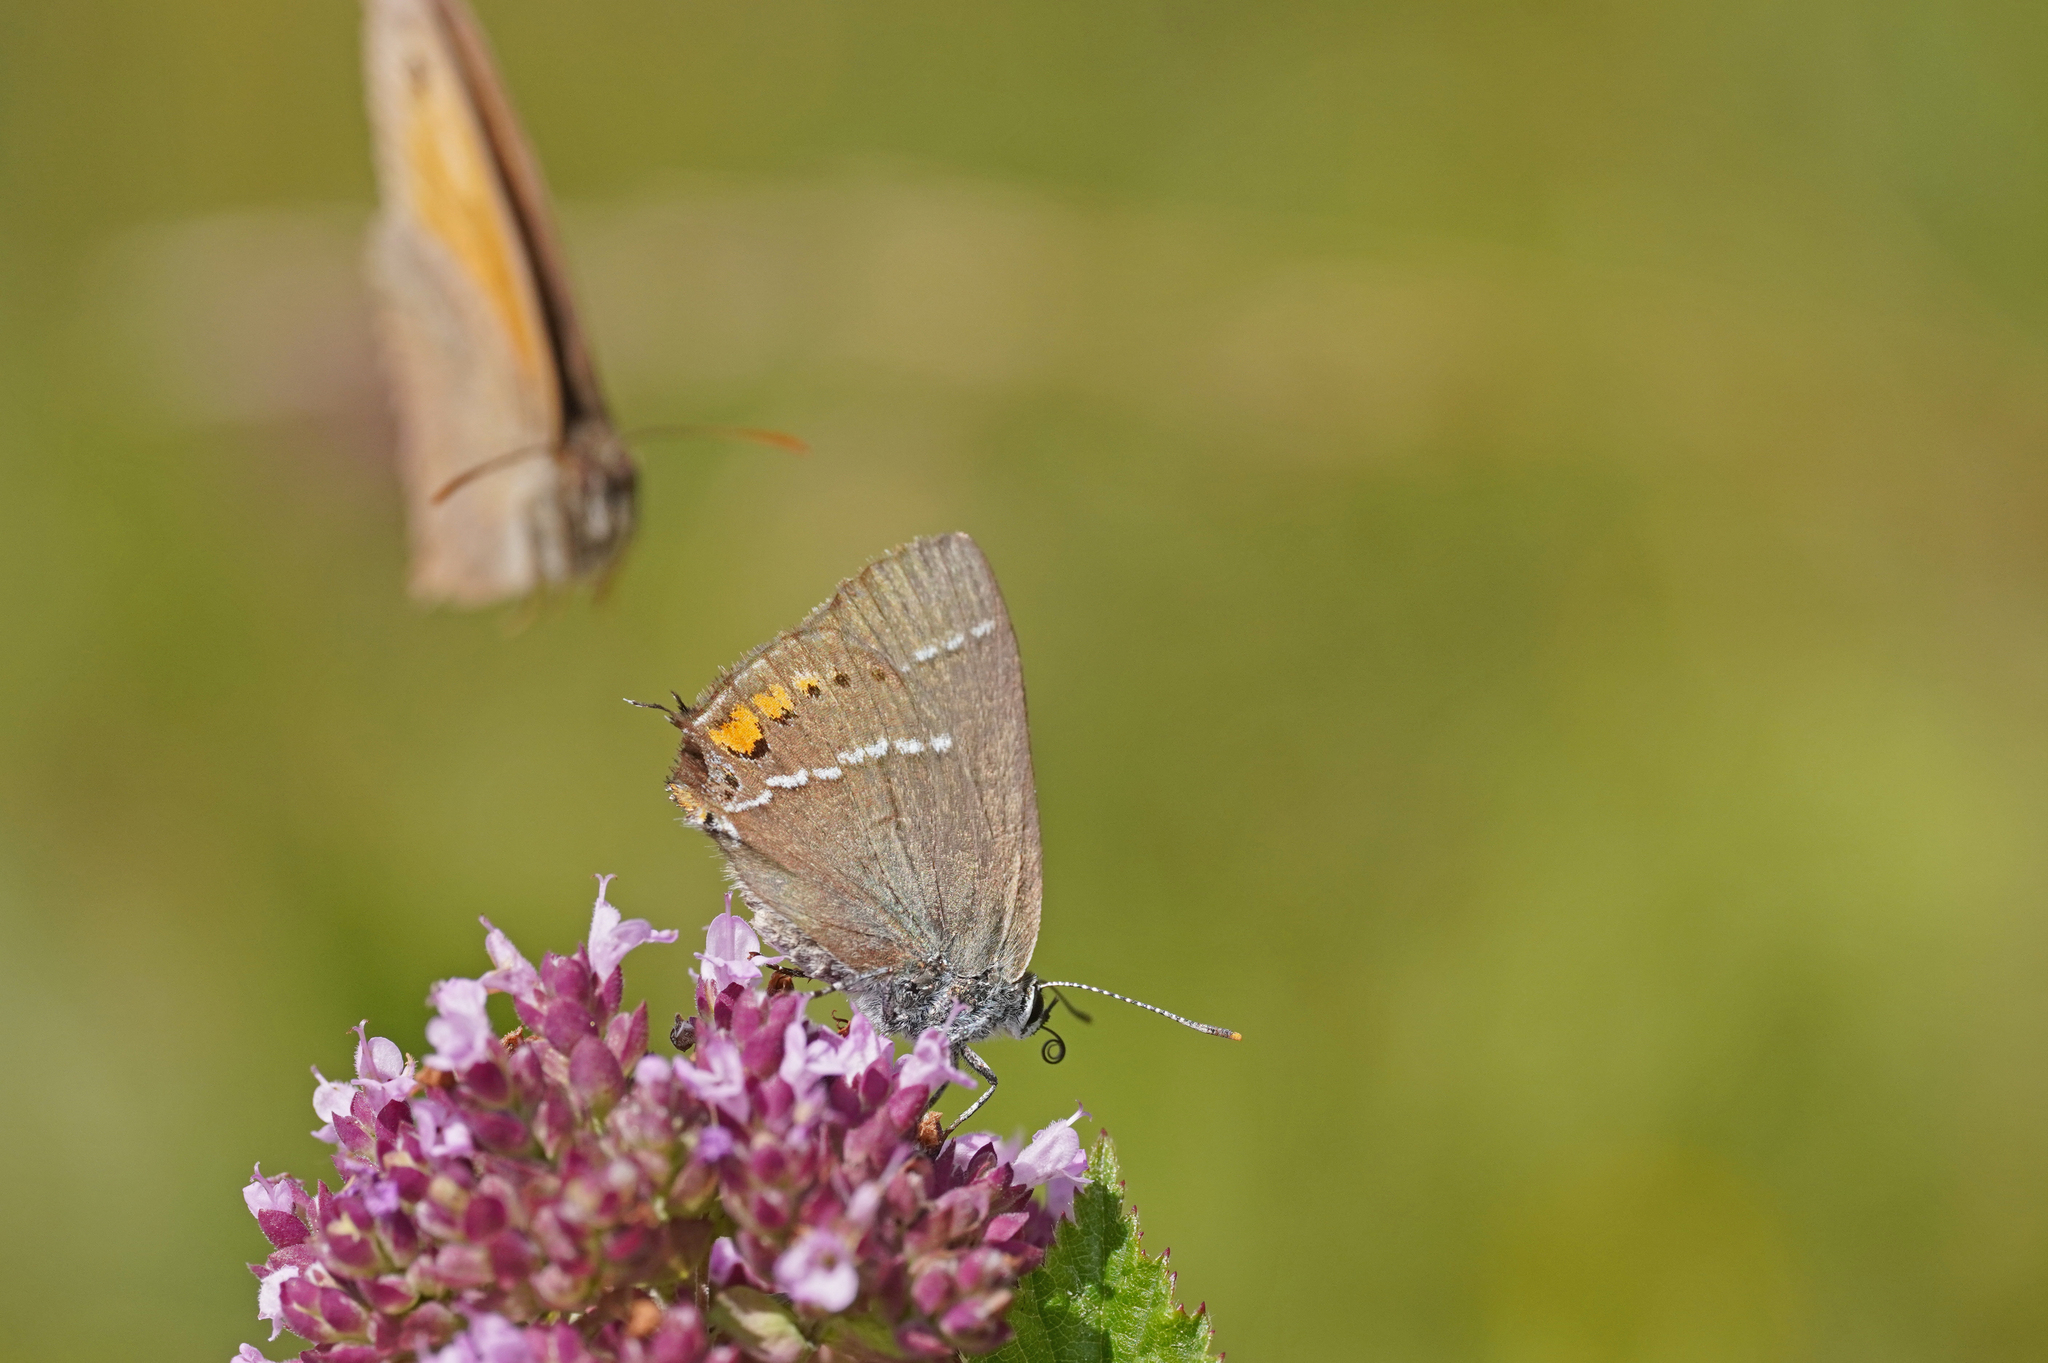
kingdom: Animalia
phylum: Arthropoda
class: Insecta
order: Lepidoptera
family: Lycaenidae
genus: Tuttiola
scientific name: Tuttiola spini
